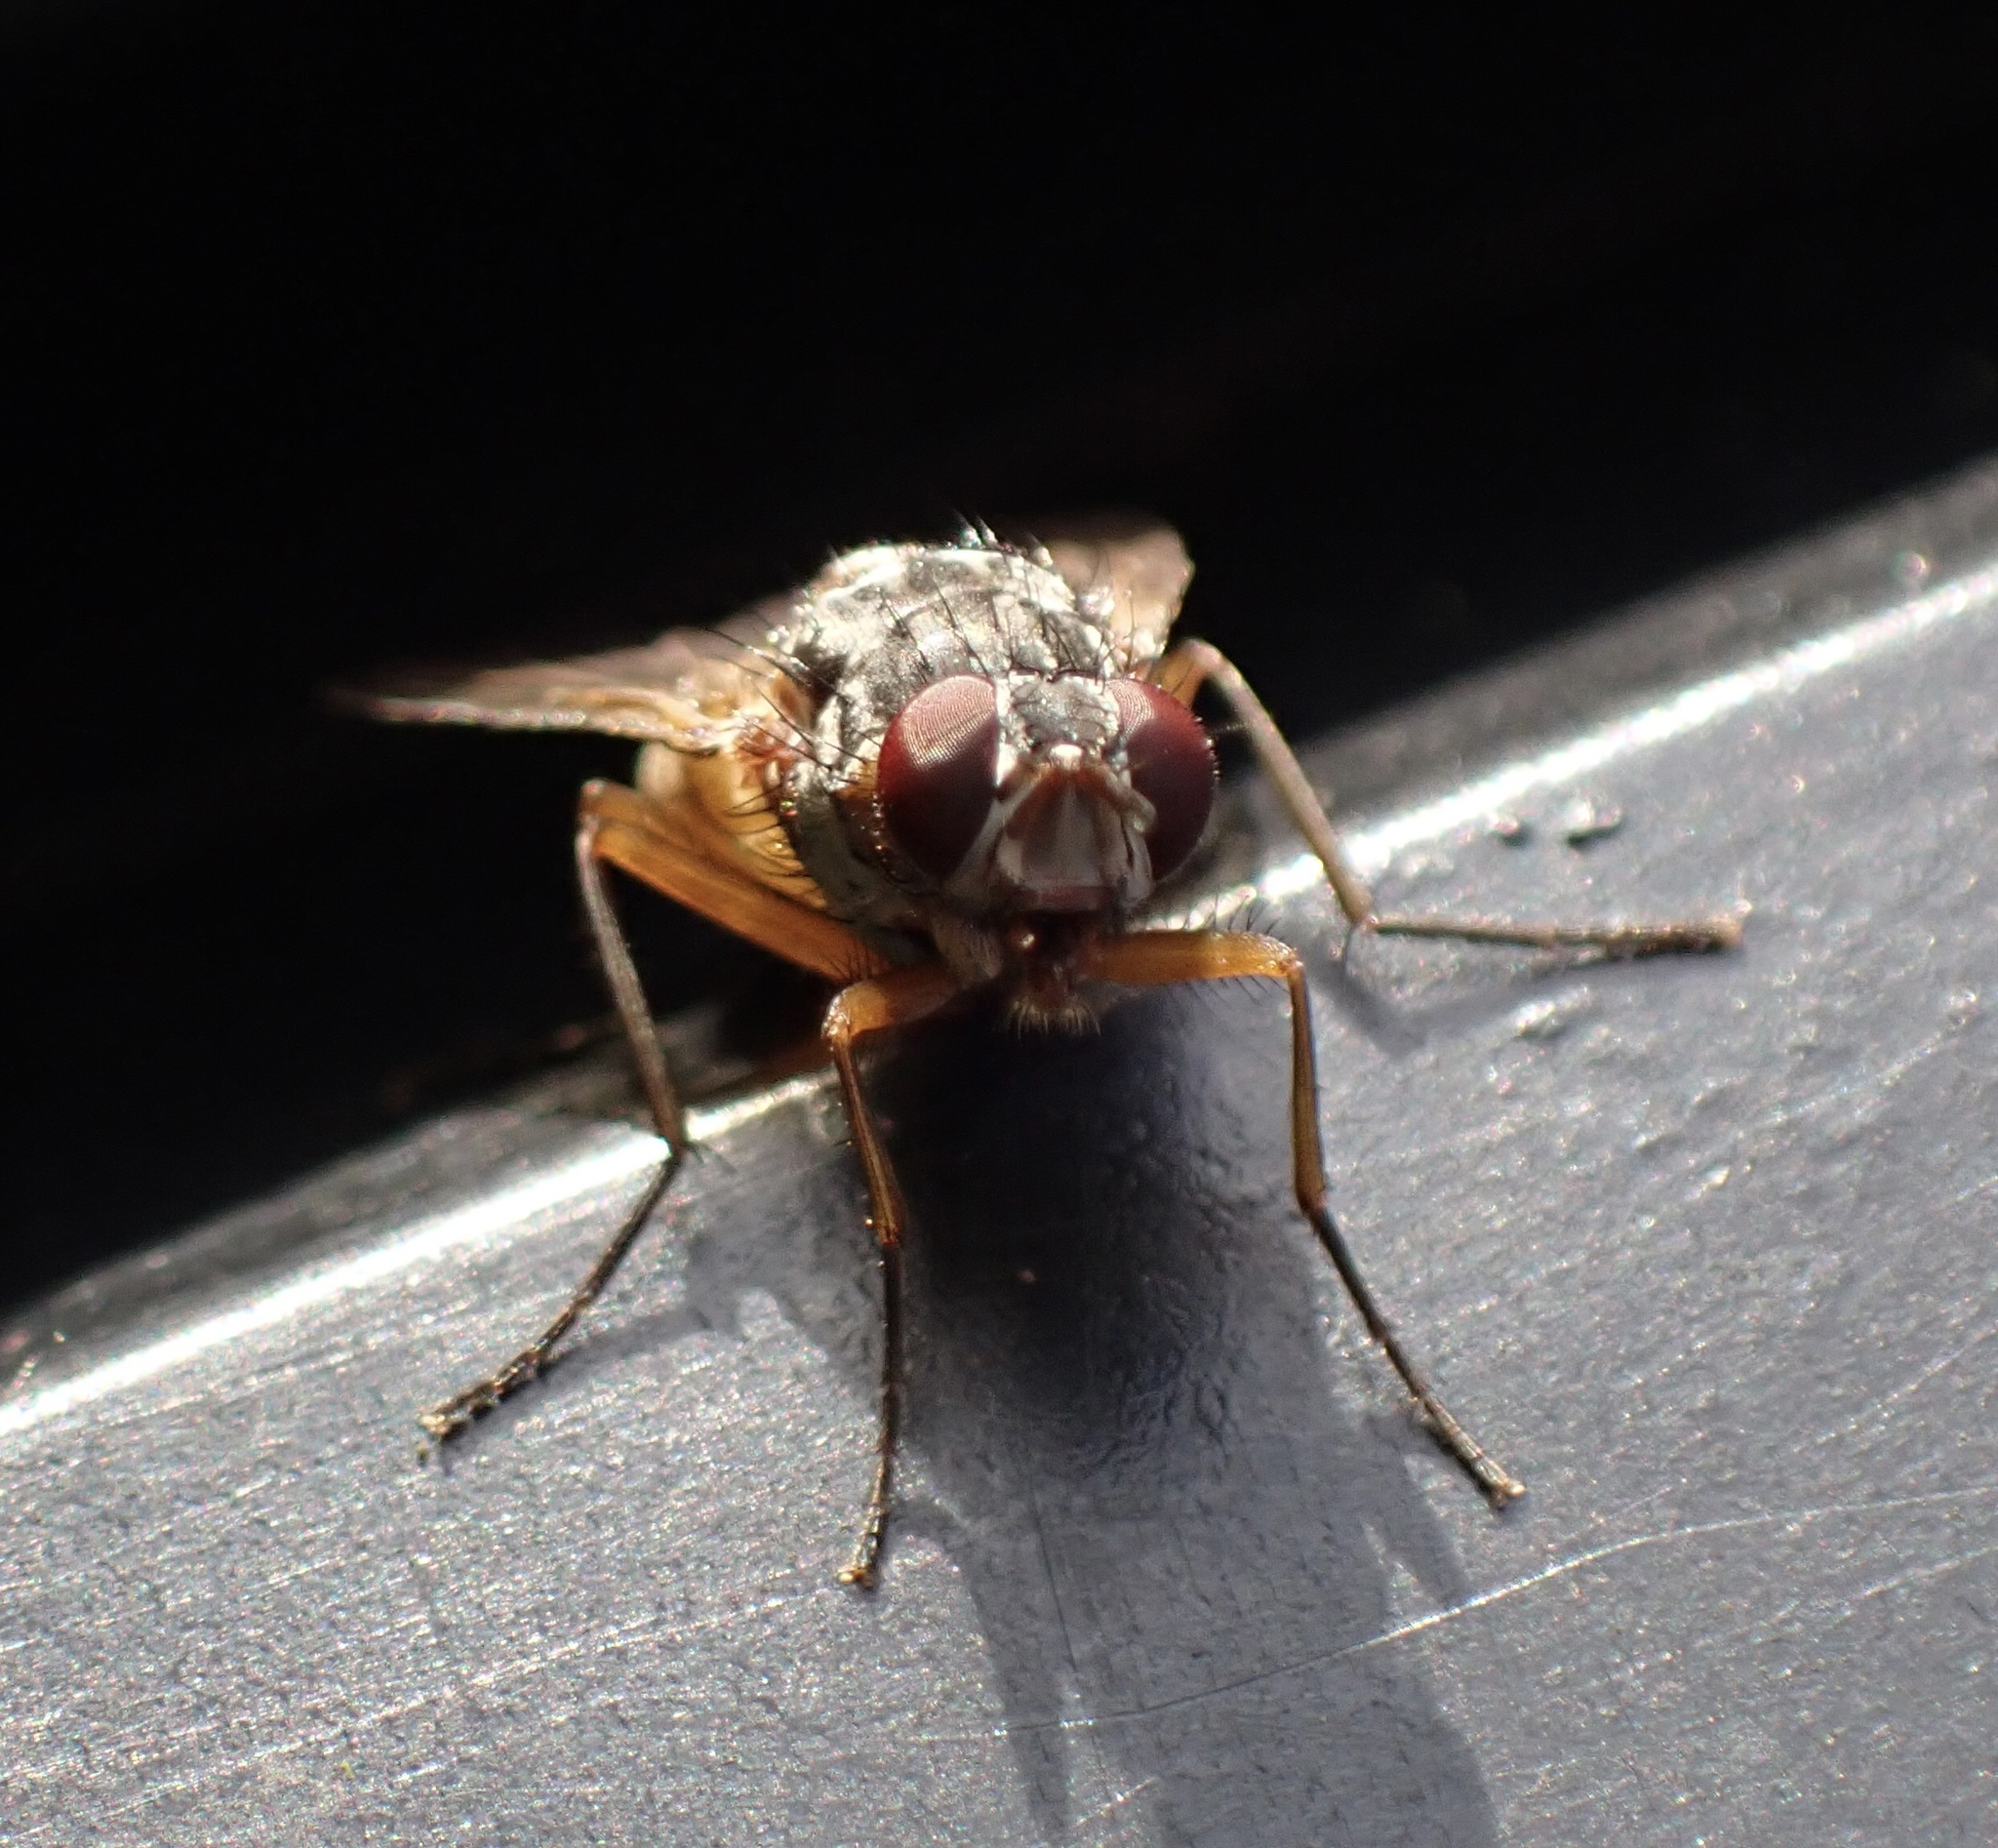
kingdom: Animalia
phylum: Arthropoda
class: Insecta
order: Diptera
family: Muscidae
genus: Phaonia
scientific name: Phaonia subventa
